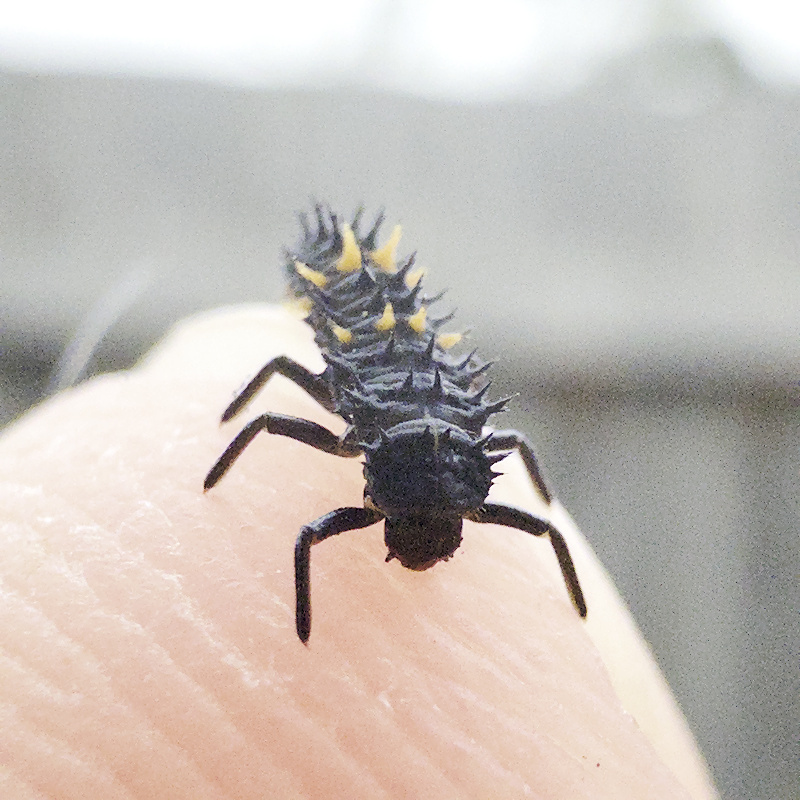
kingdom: Animalia
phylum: Arthropoda
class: Insecta
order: Coleoptera
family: Coccinellidae
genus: Harmonia
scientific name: Harmonia conformis
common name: Common spotted ladybird beetle
